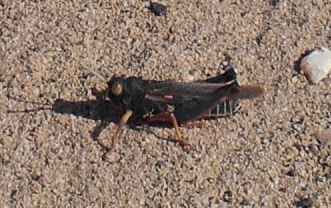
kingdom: Animalia
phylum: Arthropoda
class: Insecta
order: Orthoptera
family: Dericorythidae
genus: Dericorys
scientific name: Dericorys lobata
